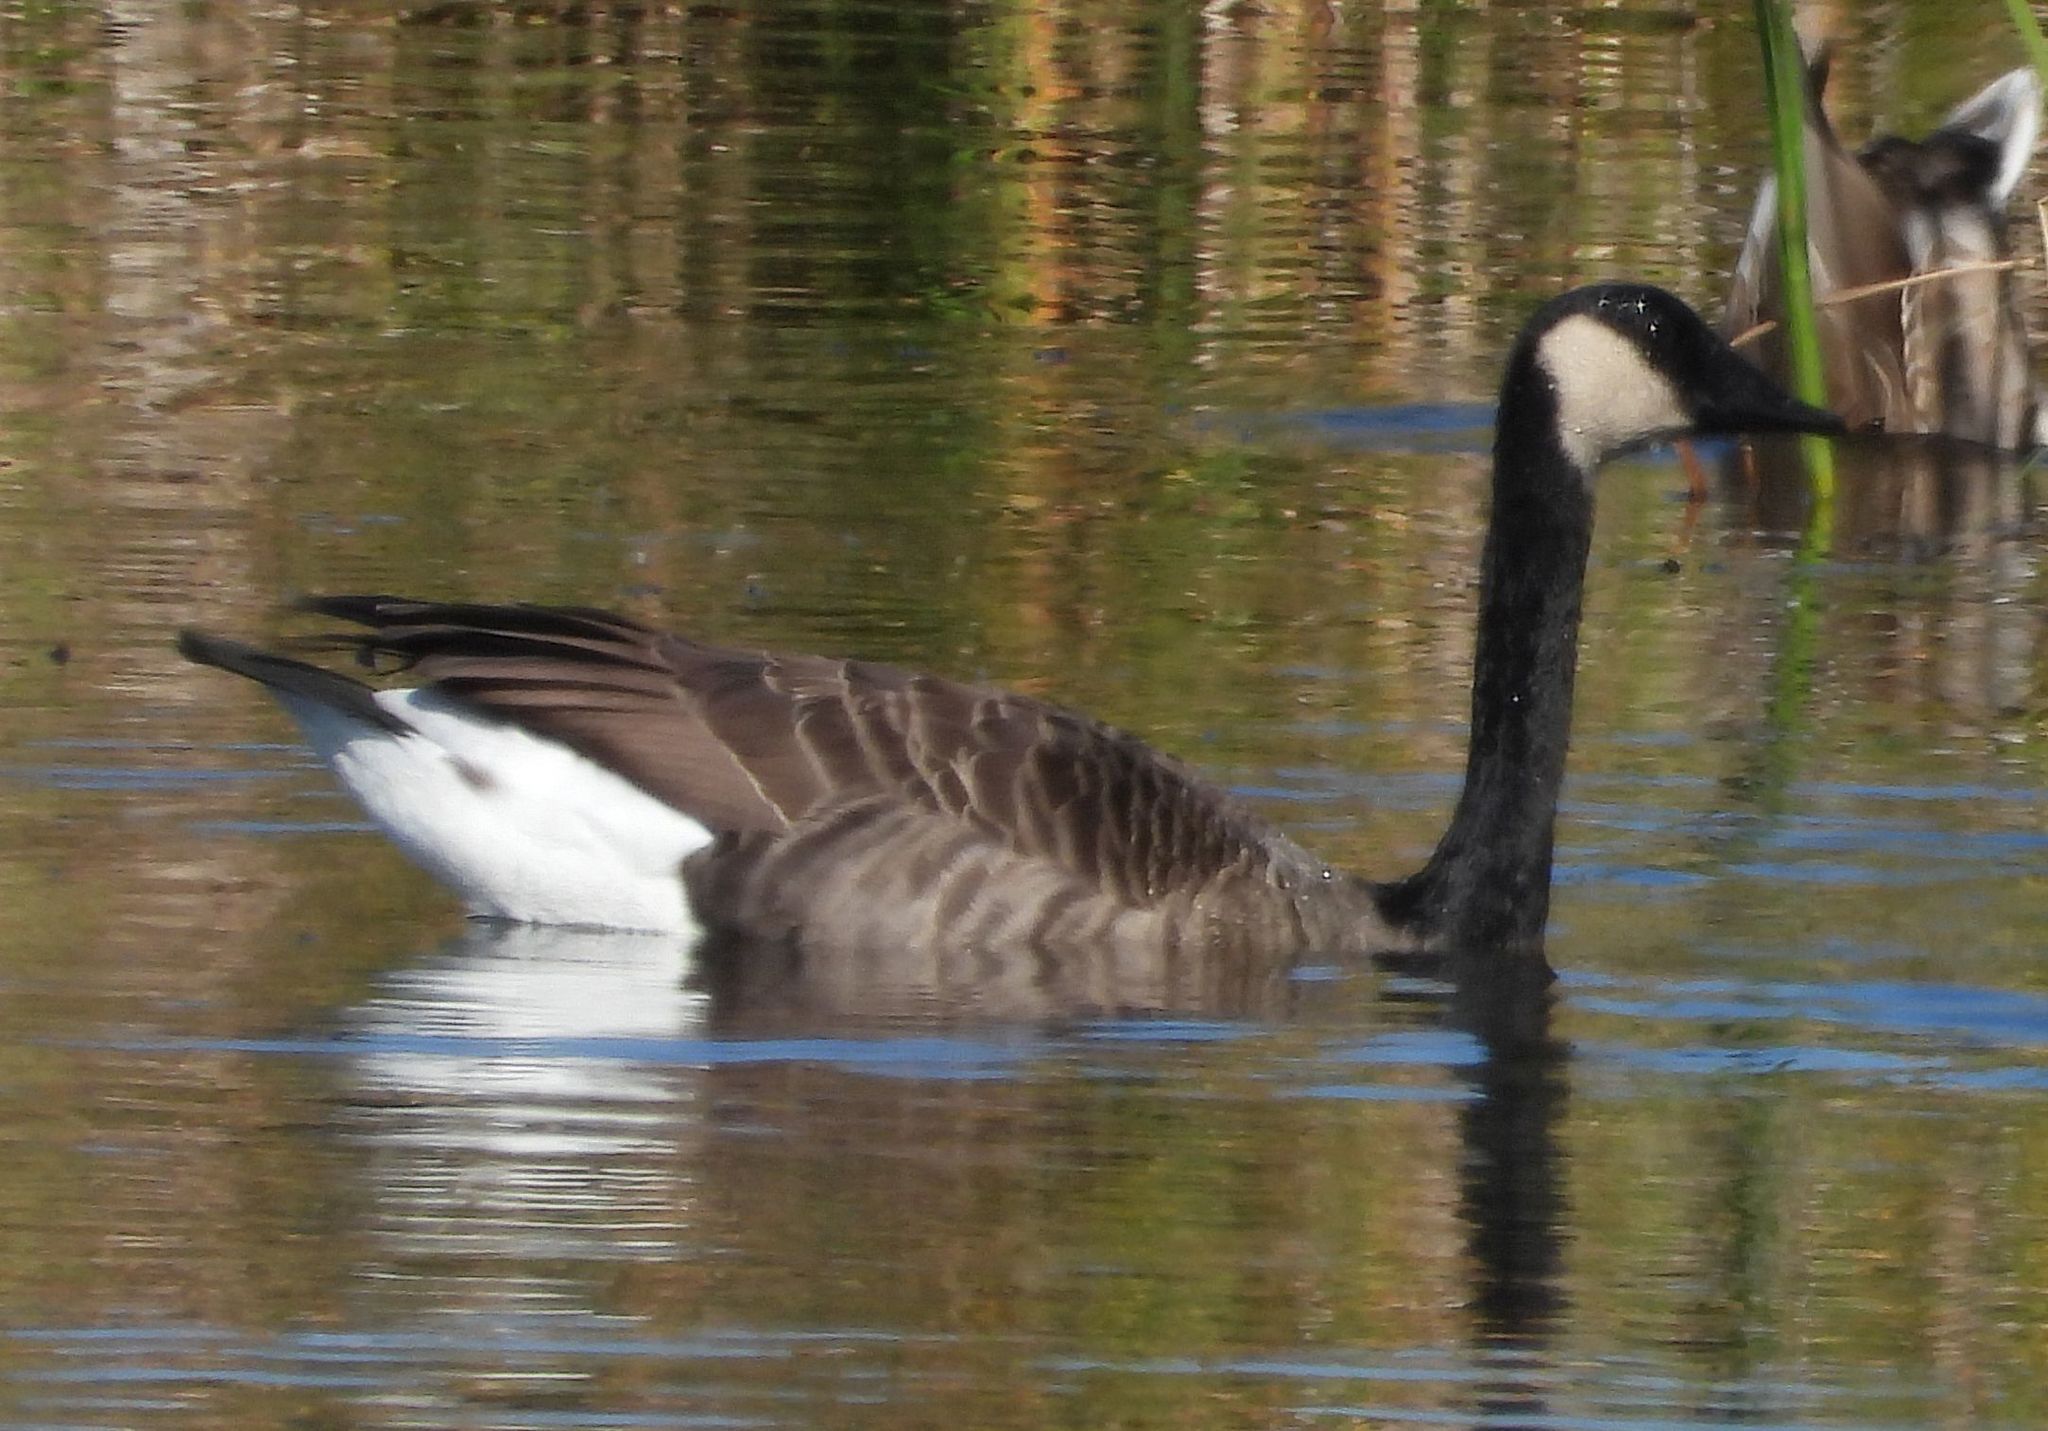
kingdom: Animalia
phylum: Chordata
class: Aves
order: Anseriformes
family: Anatidae
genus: Branta
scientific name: Branta canadensis
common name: Canada goose
